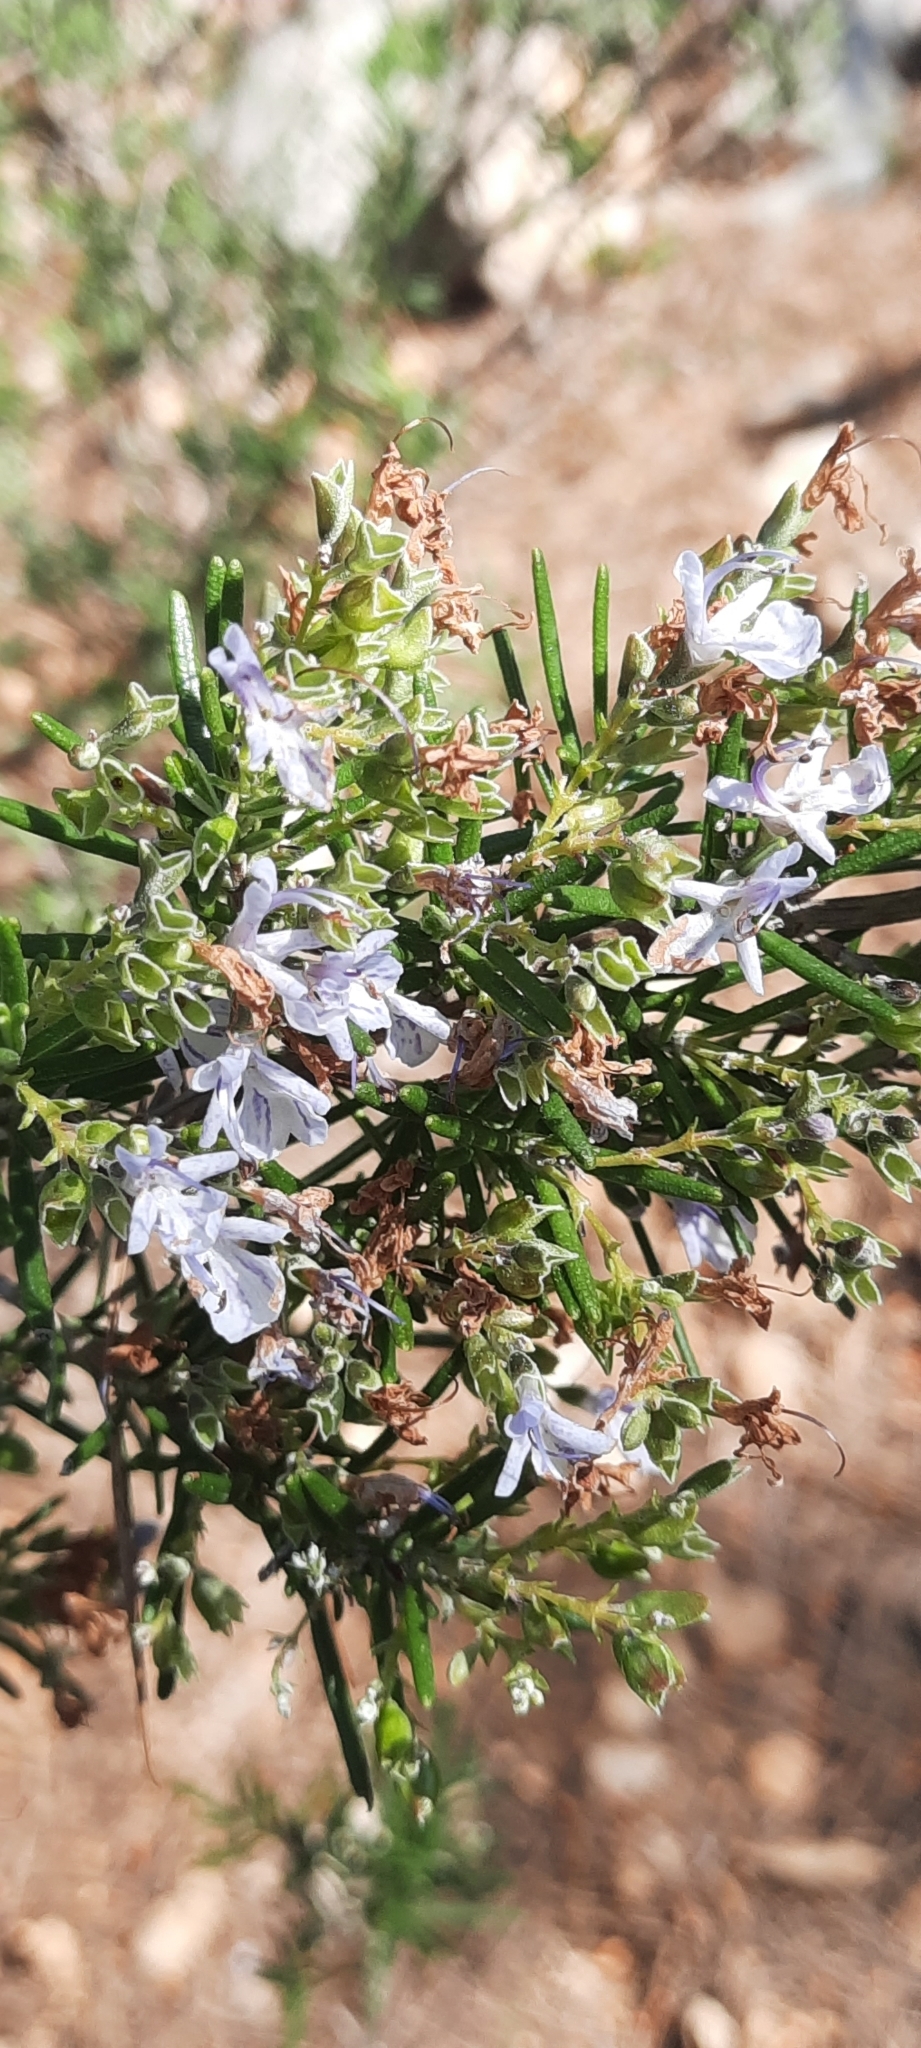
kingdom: Plantae
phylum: Tracheophyta
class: Magnoliopsida
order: Lamiales
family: Lamiaceae
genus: Salvia
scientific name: Salvia rosmarinus
